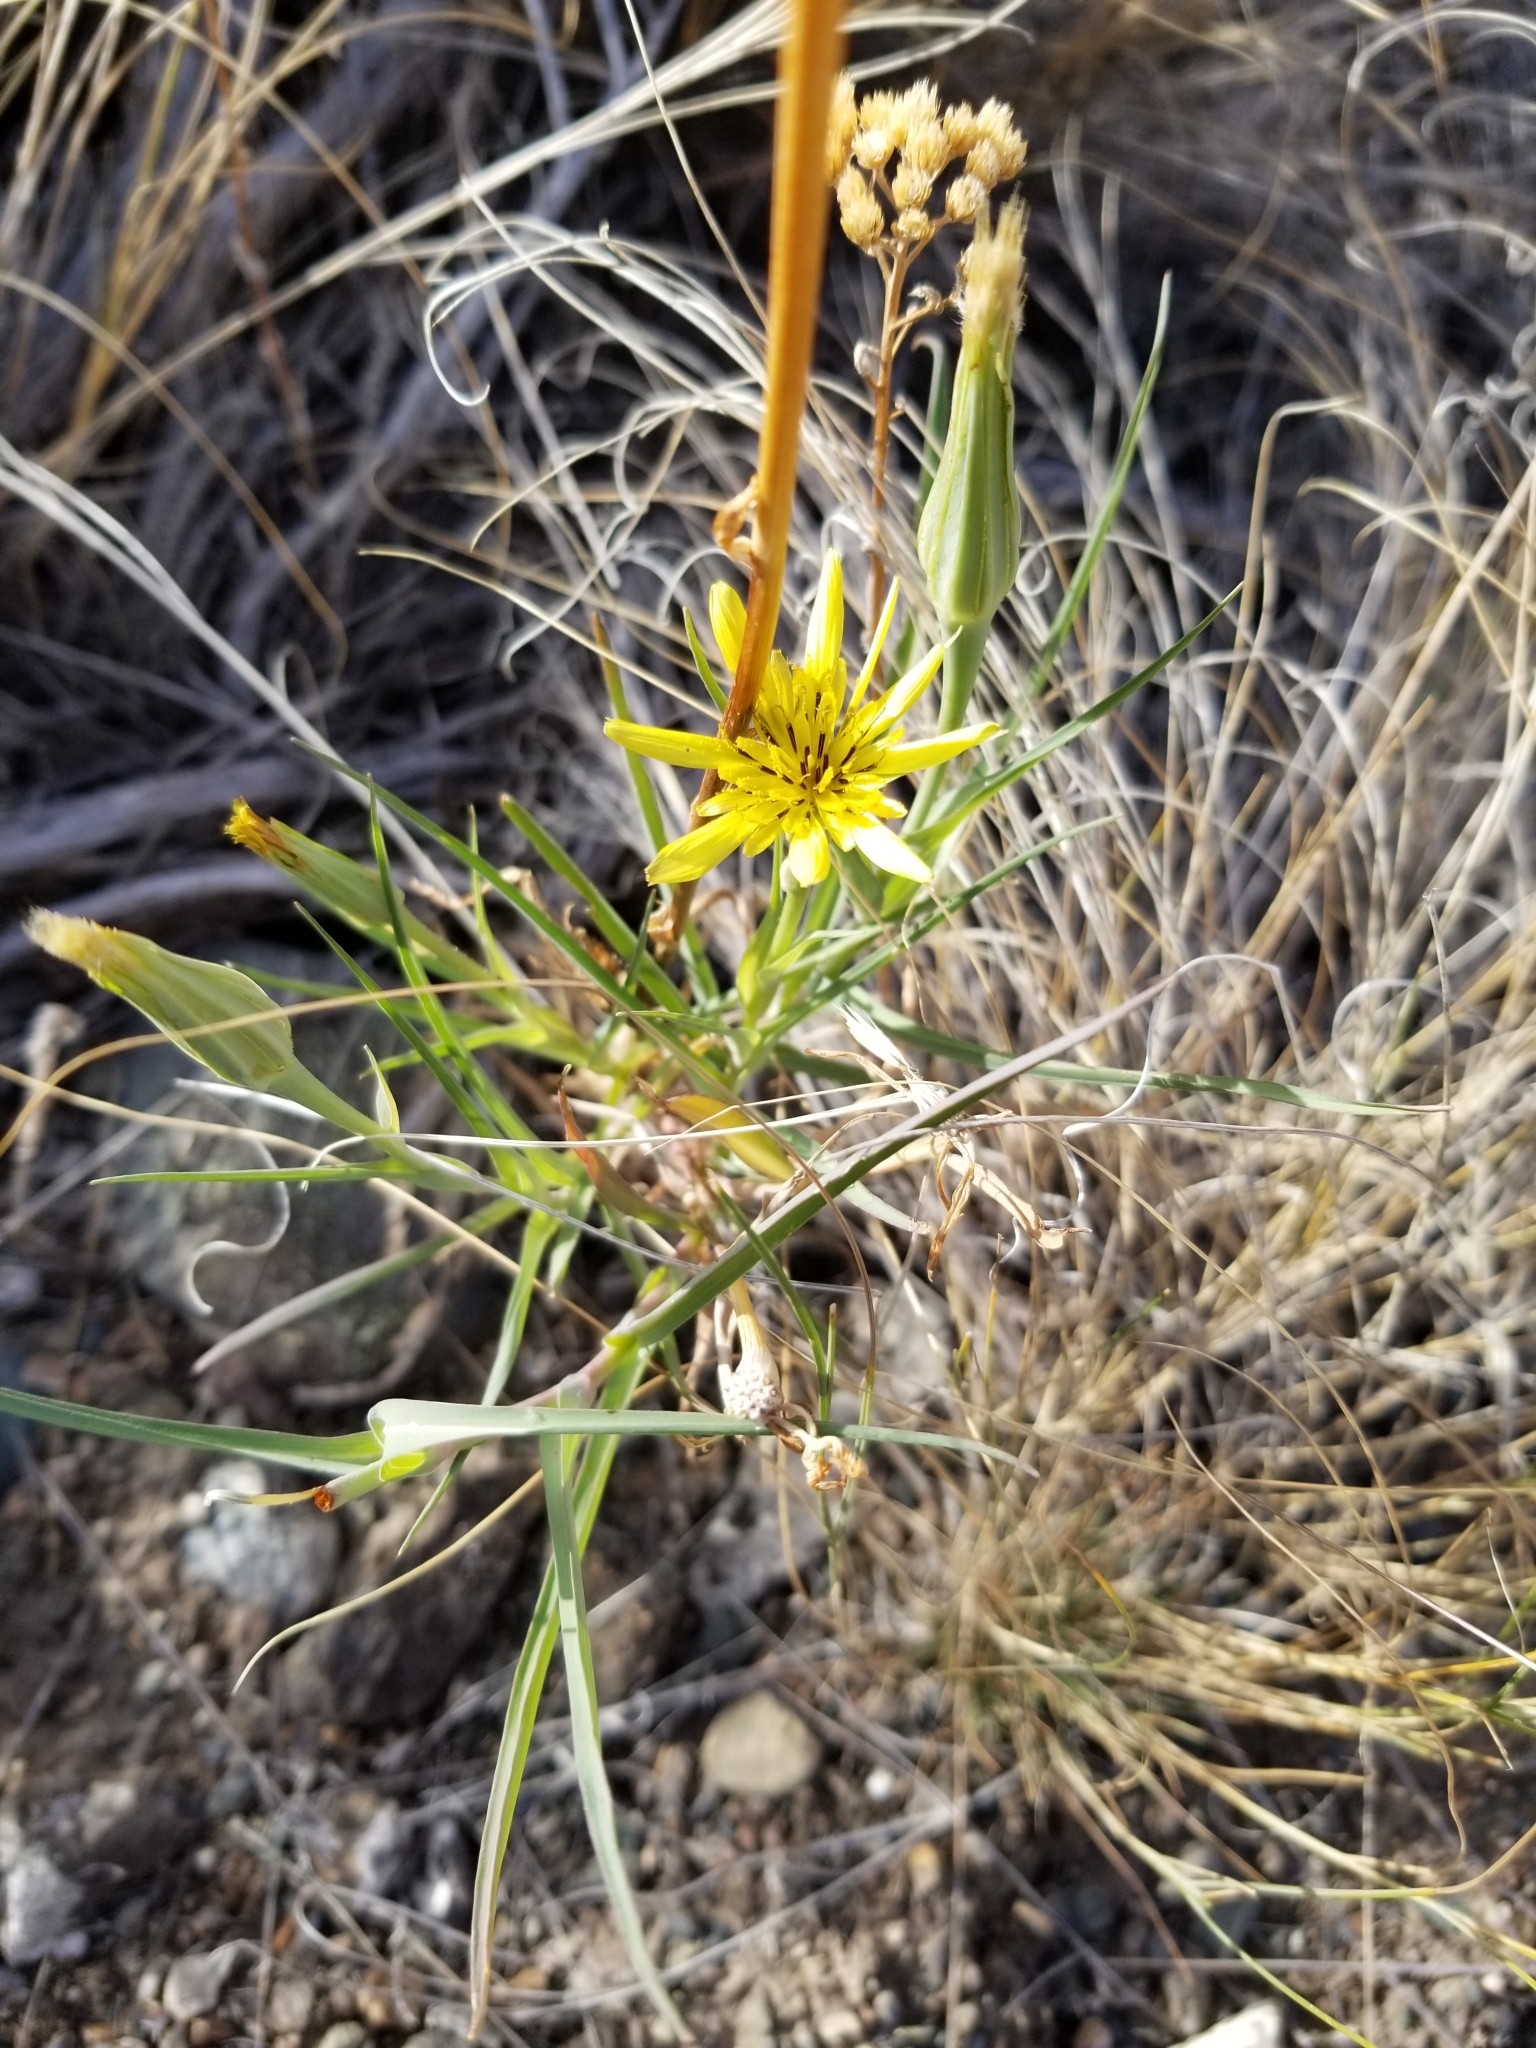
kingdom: Plantae
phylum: Tracheophyta
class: Magnoliopsida
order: Asterales
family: Asteraceae
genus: Tragopogon
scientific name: Tragopogon dubius
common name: Yellow salsify
